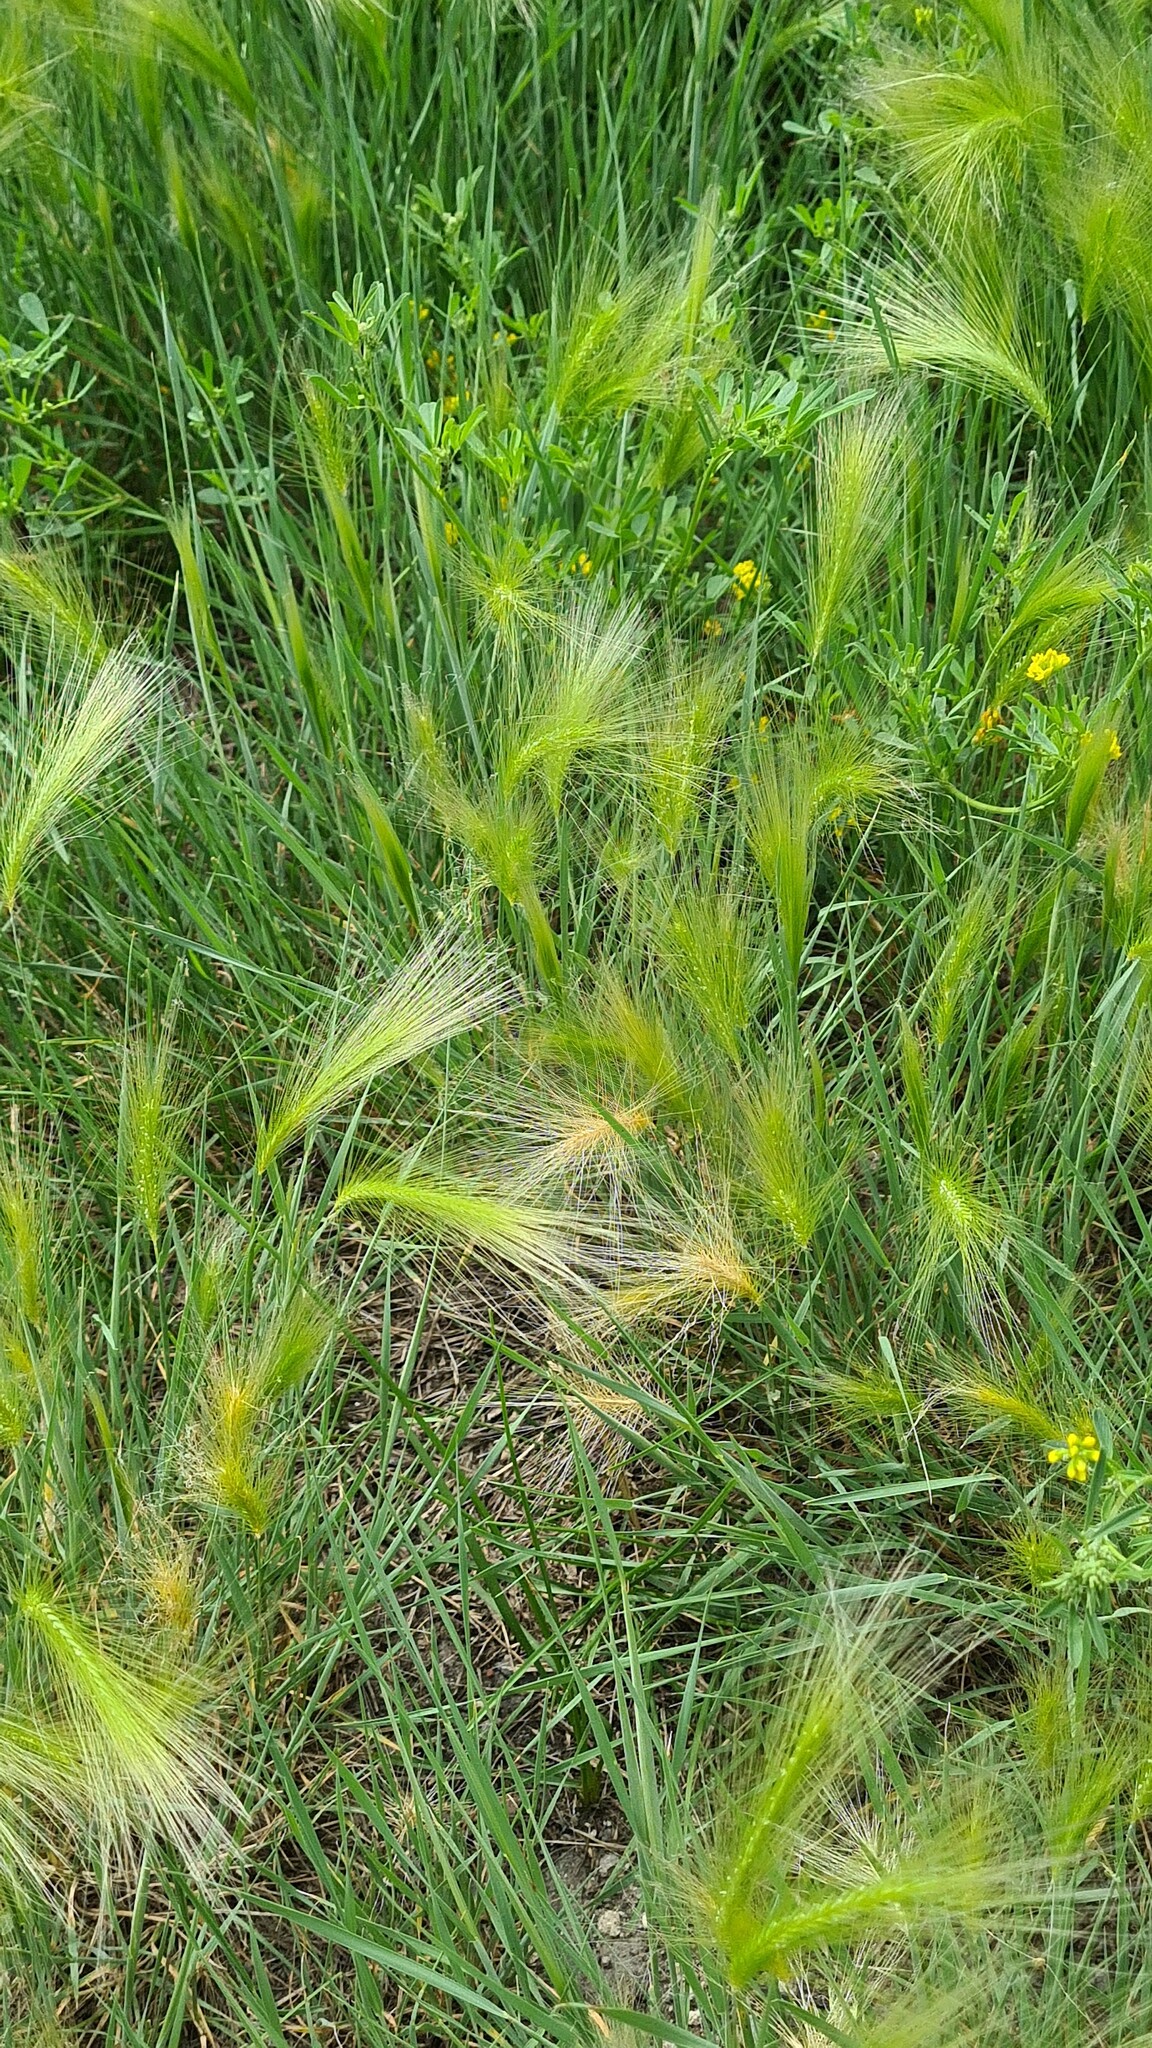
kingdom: Plantae
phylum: Tracheophyta
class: Liliopsida
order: Poales
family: Poaceae
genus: Hordeum
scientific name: Hordeum jubatum
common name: Foxtail barley
